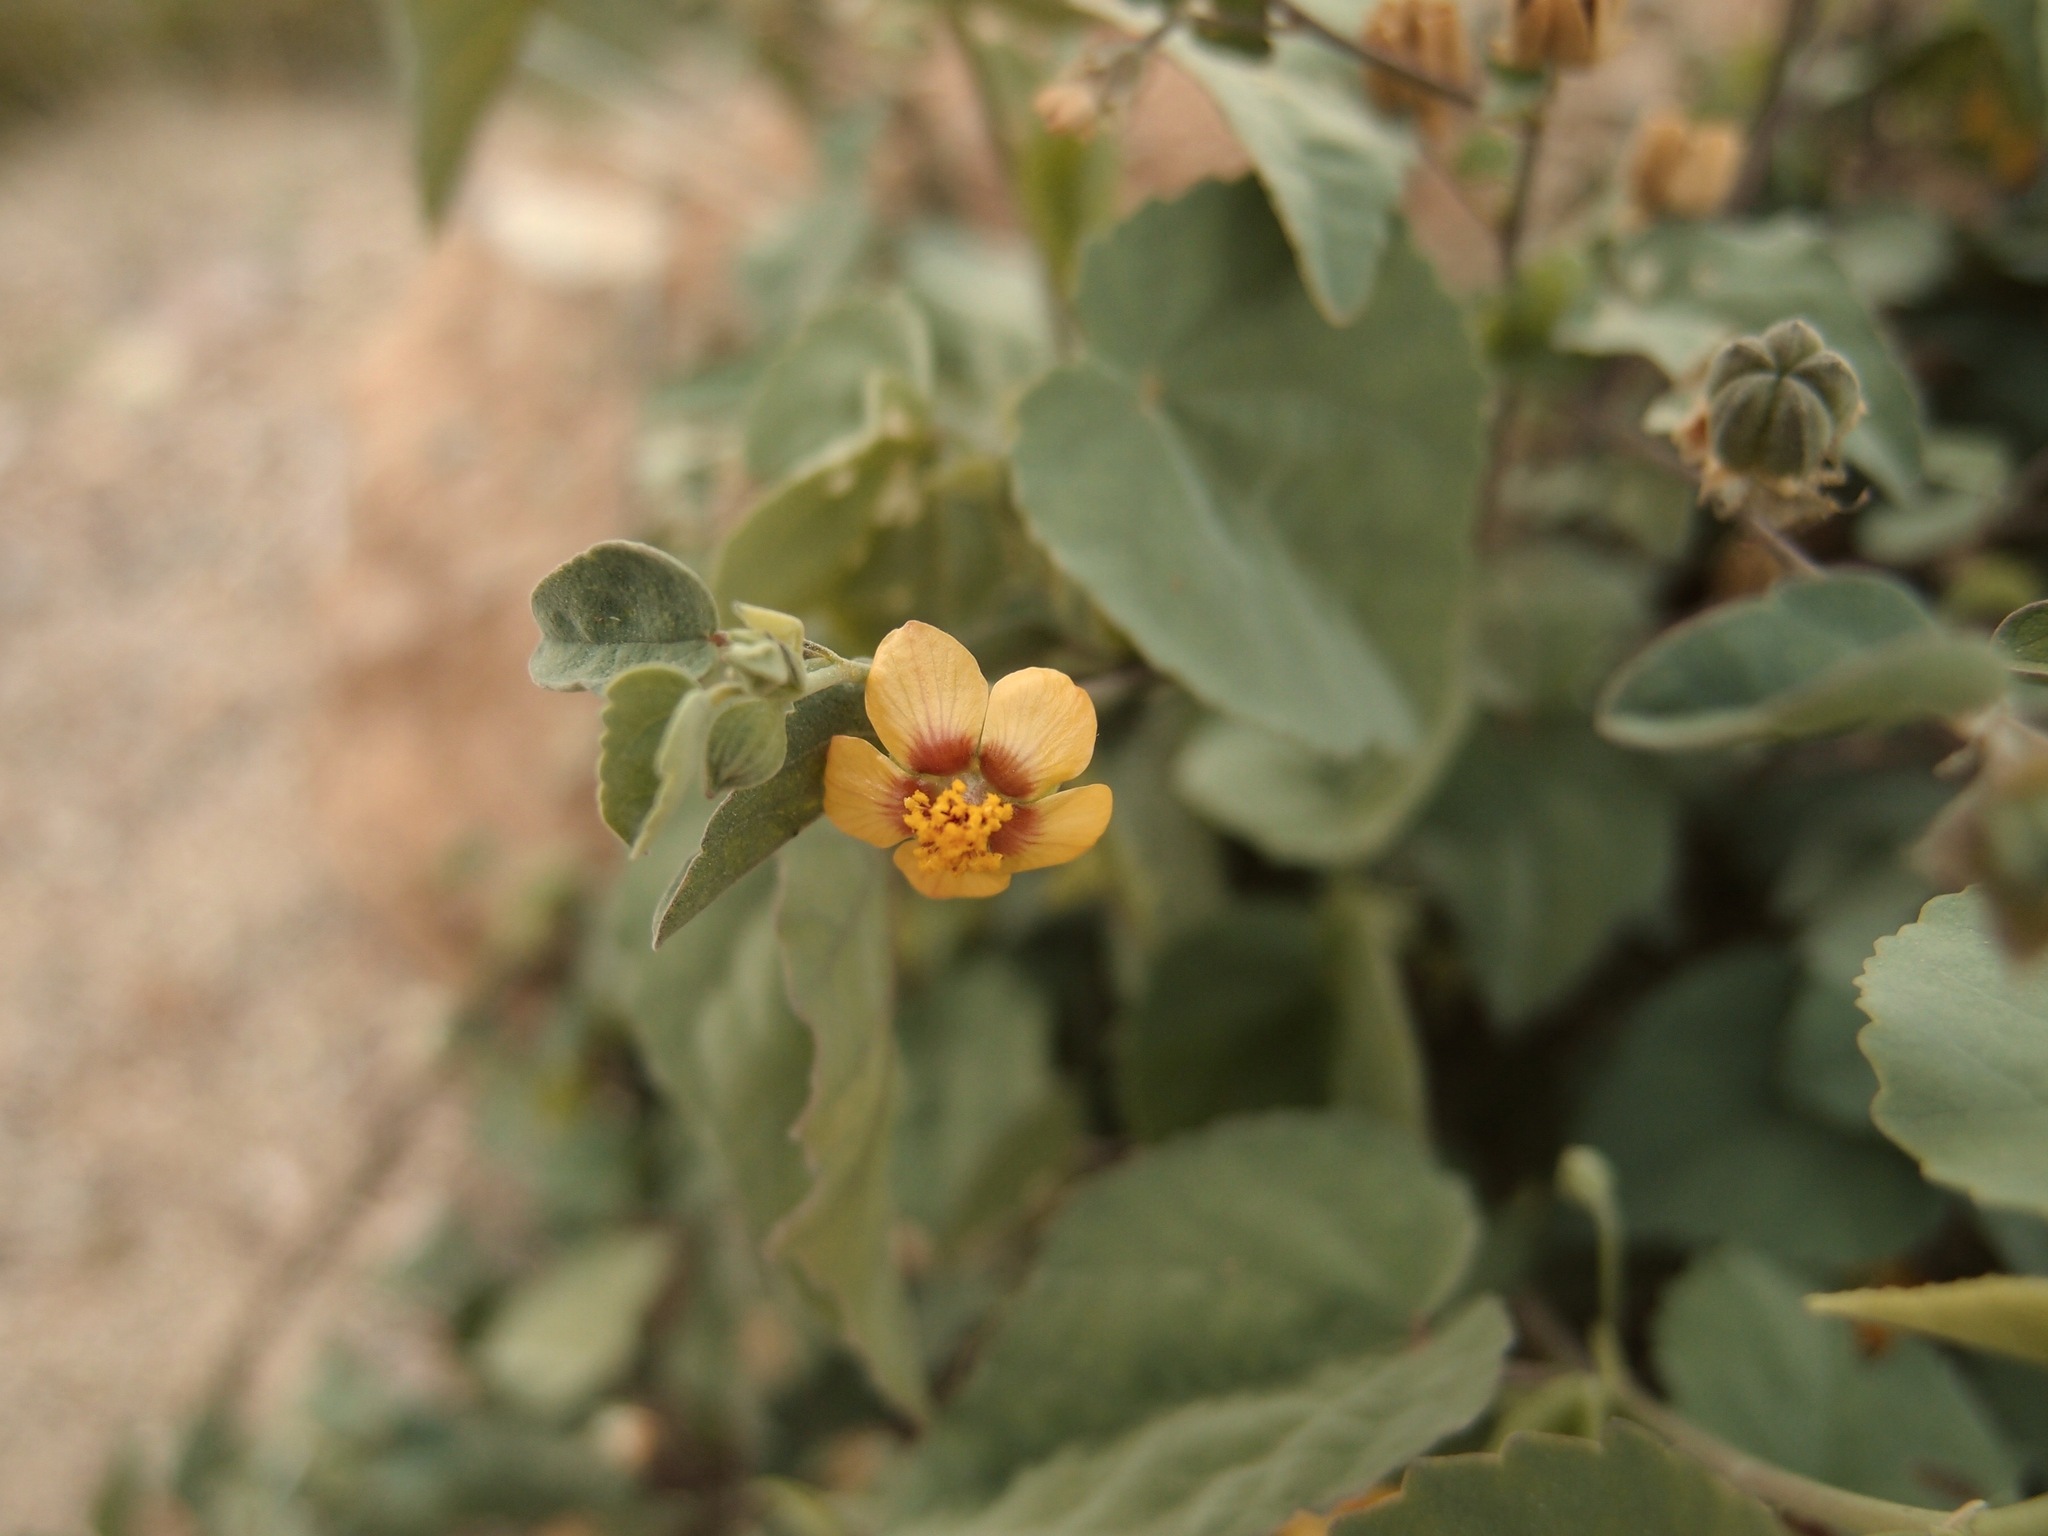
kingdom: Plantae
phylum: Tracheophyta
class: Magnoliopsida
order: Malvales
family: Malvaceae
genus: Abutilon
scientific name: Abutilon incanum
